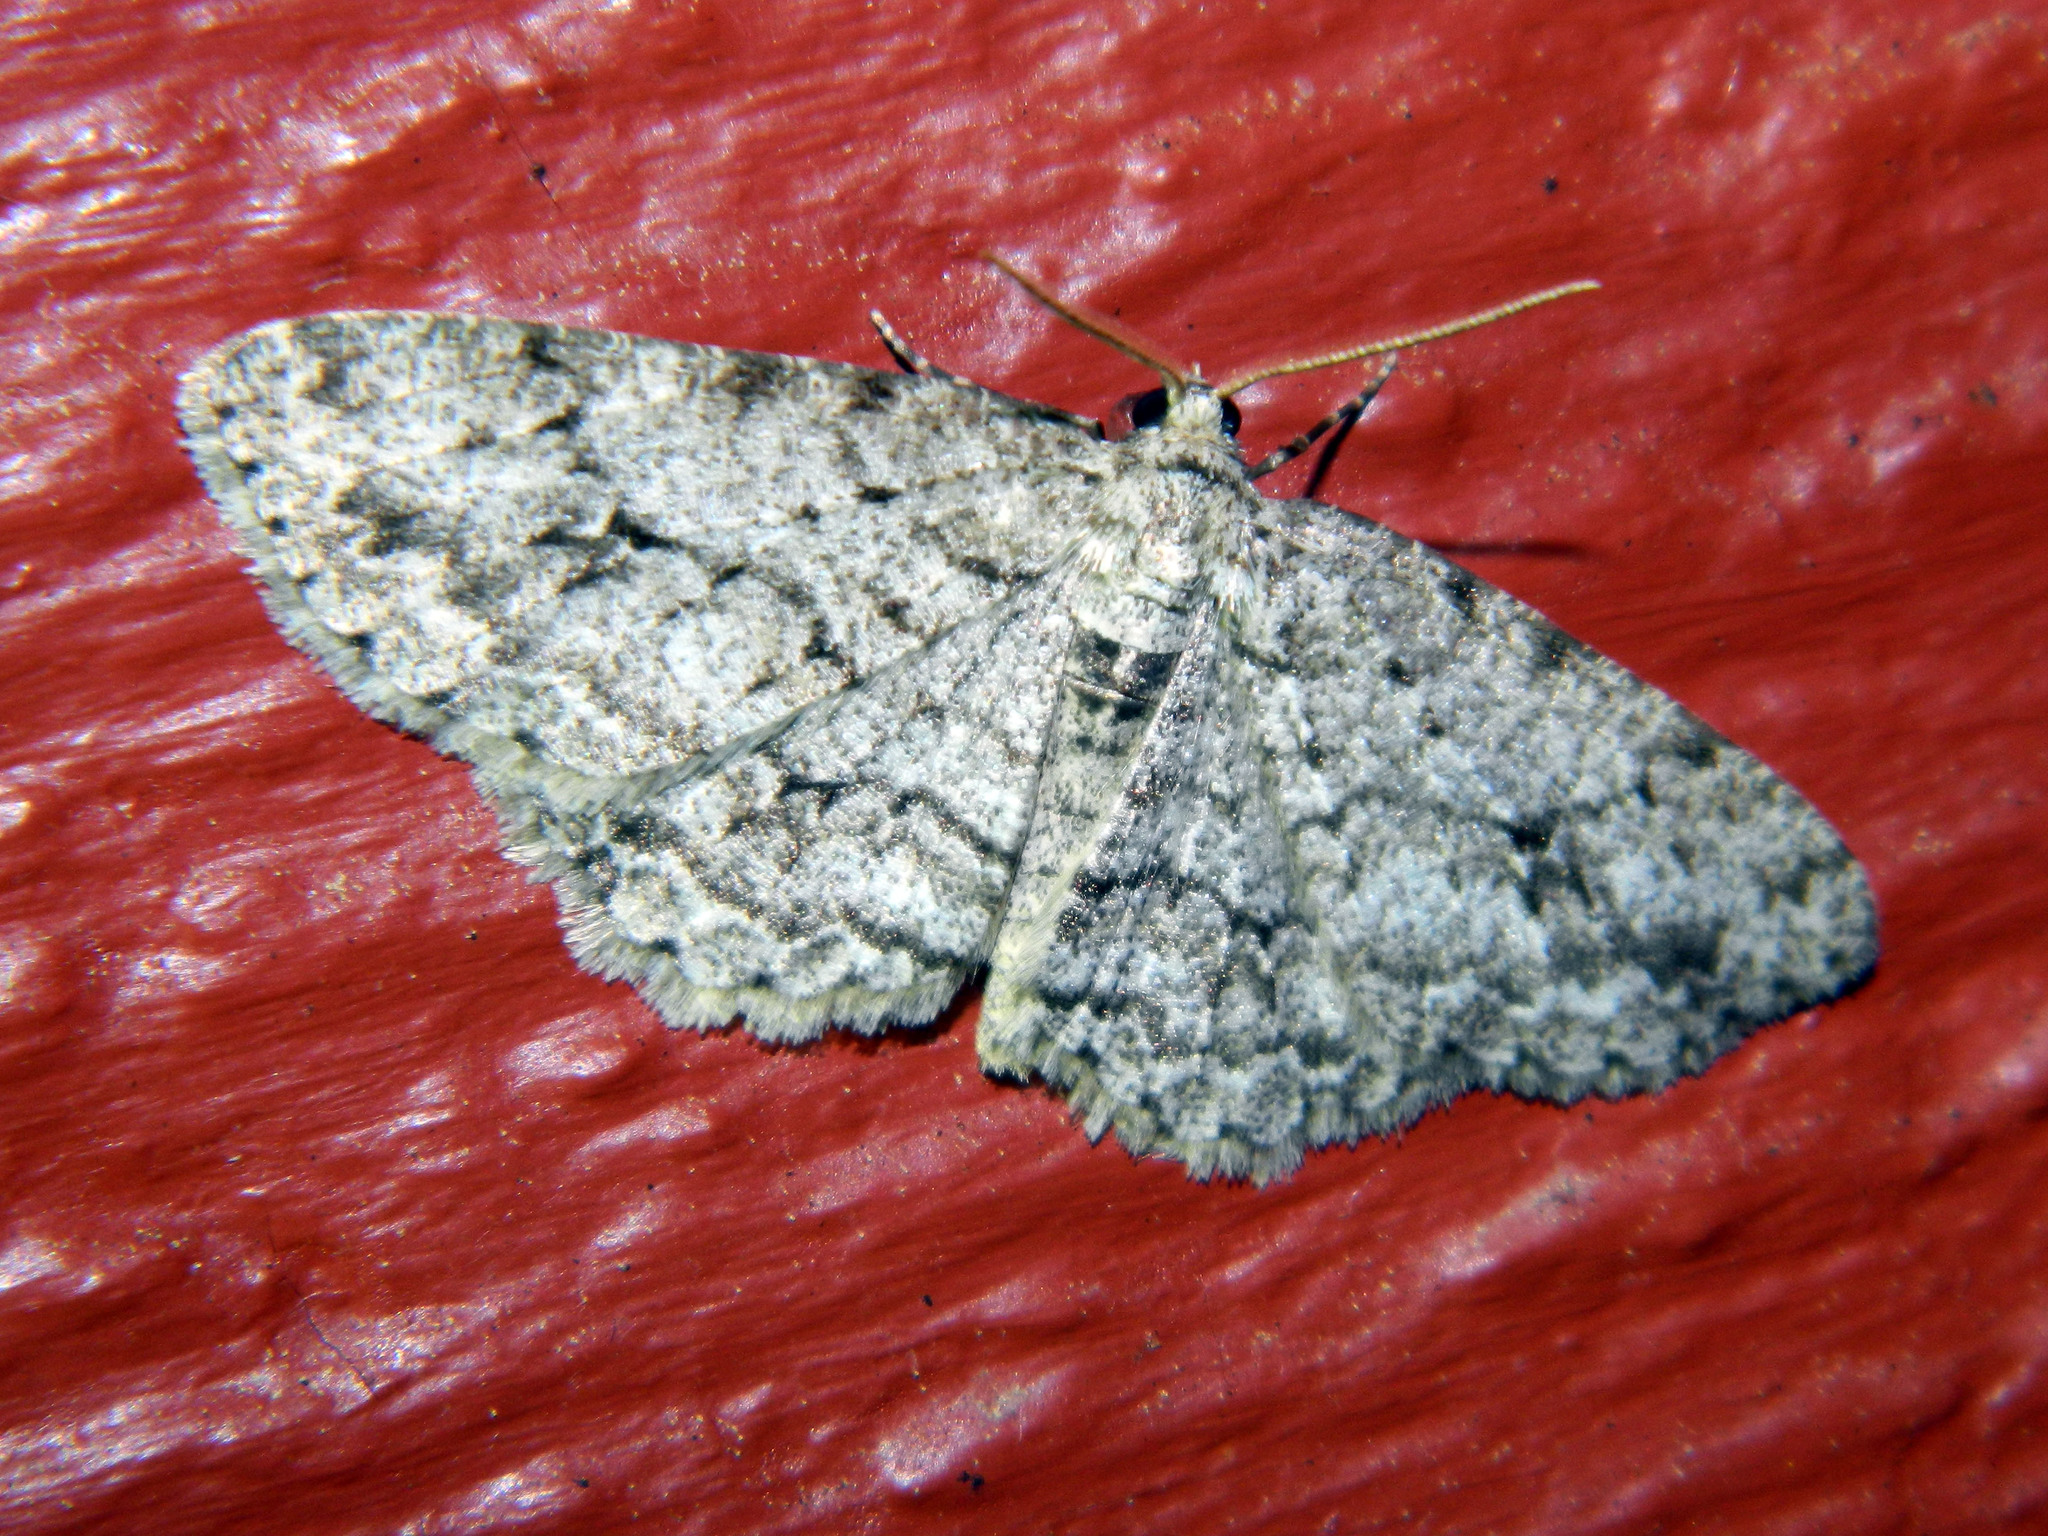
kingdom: Animalia
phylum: Arthropoda
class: Insecta
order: Lepidoptera
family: Geometridae
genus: Ectropis
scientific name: Ectropis crepuscularia
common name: Engrailed
